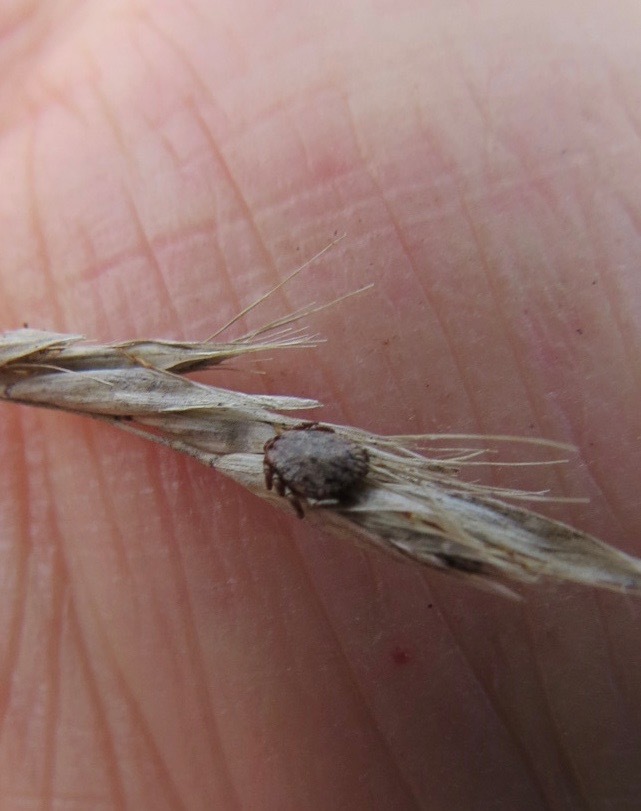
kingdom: Animalia
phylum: Arthropoda
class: Arachnida
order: Ixodida
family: Ixodidae
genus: Dermacentor
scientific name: Dermacentor occidentalis
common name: Net tick
